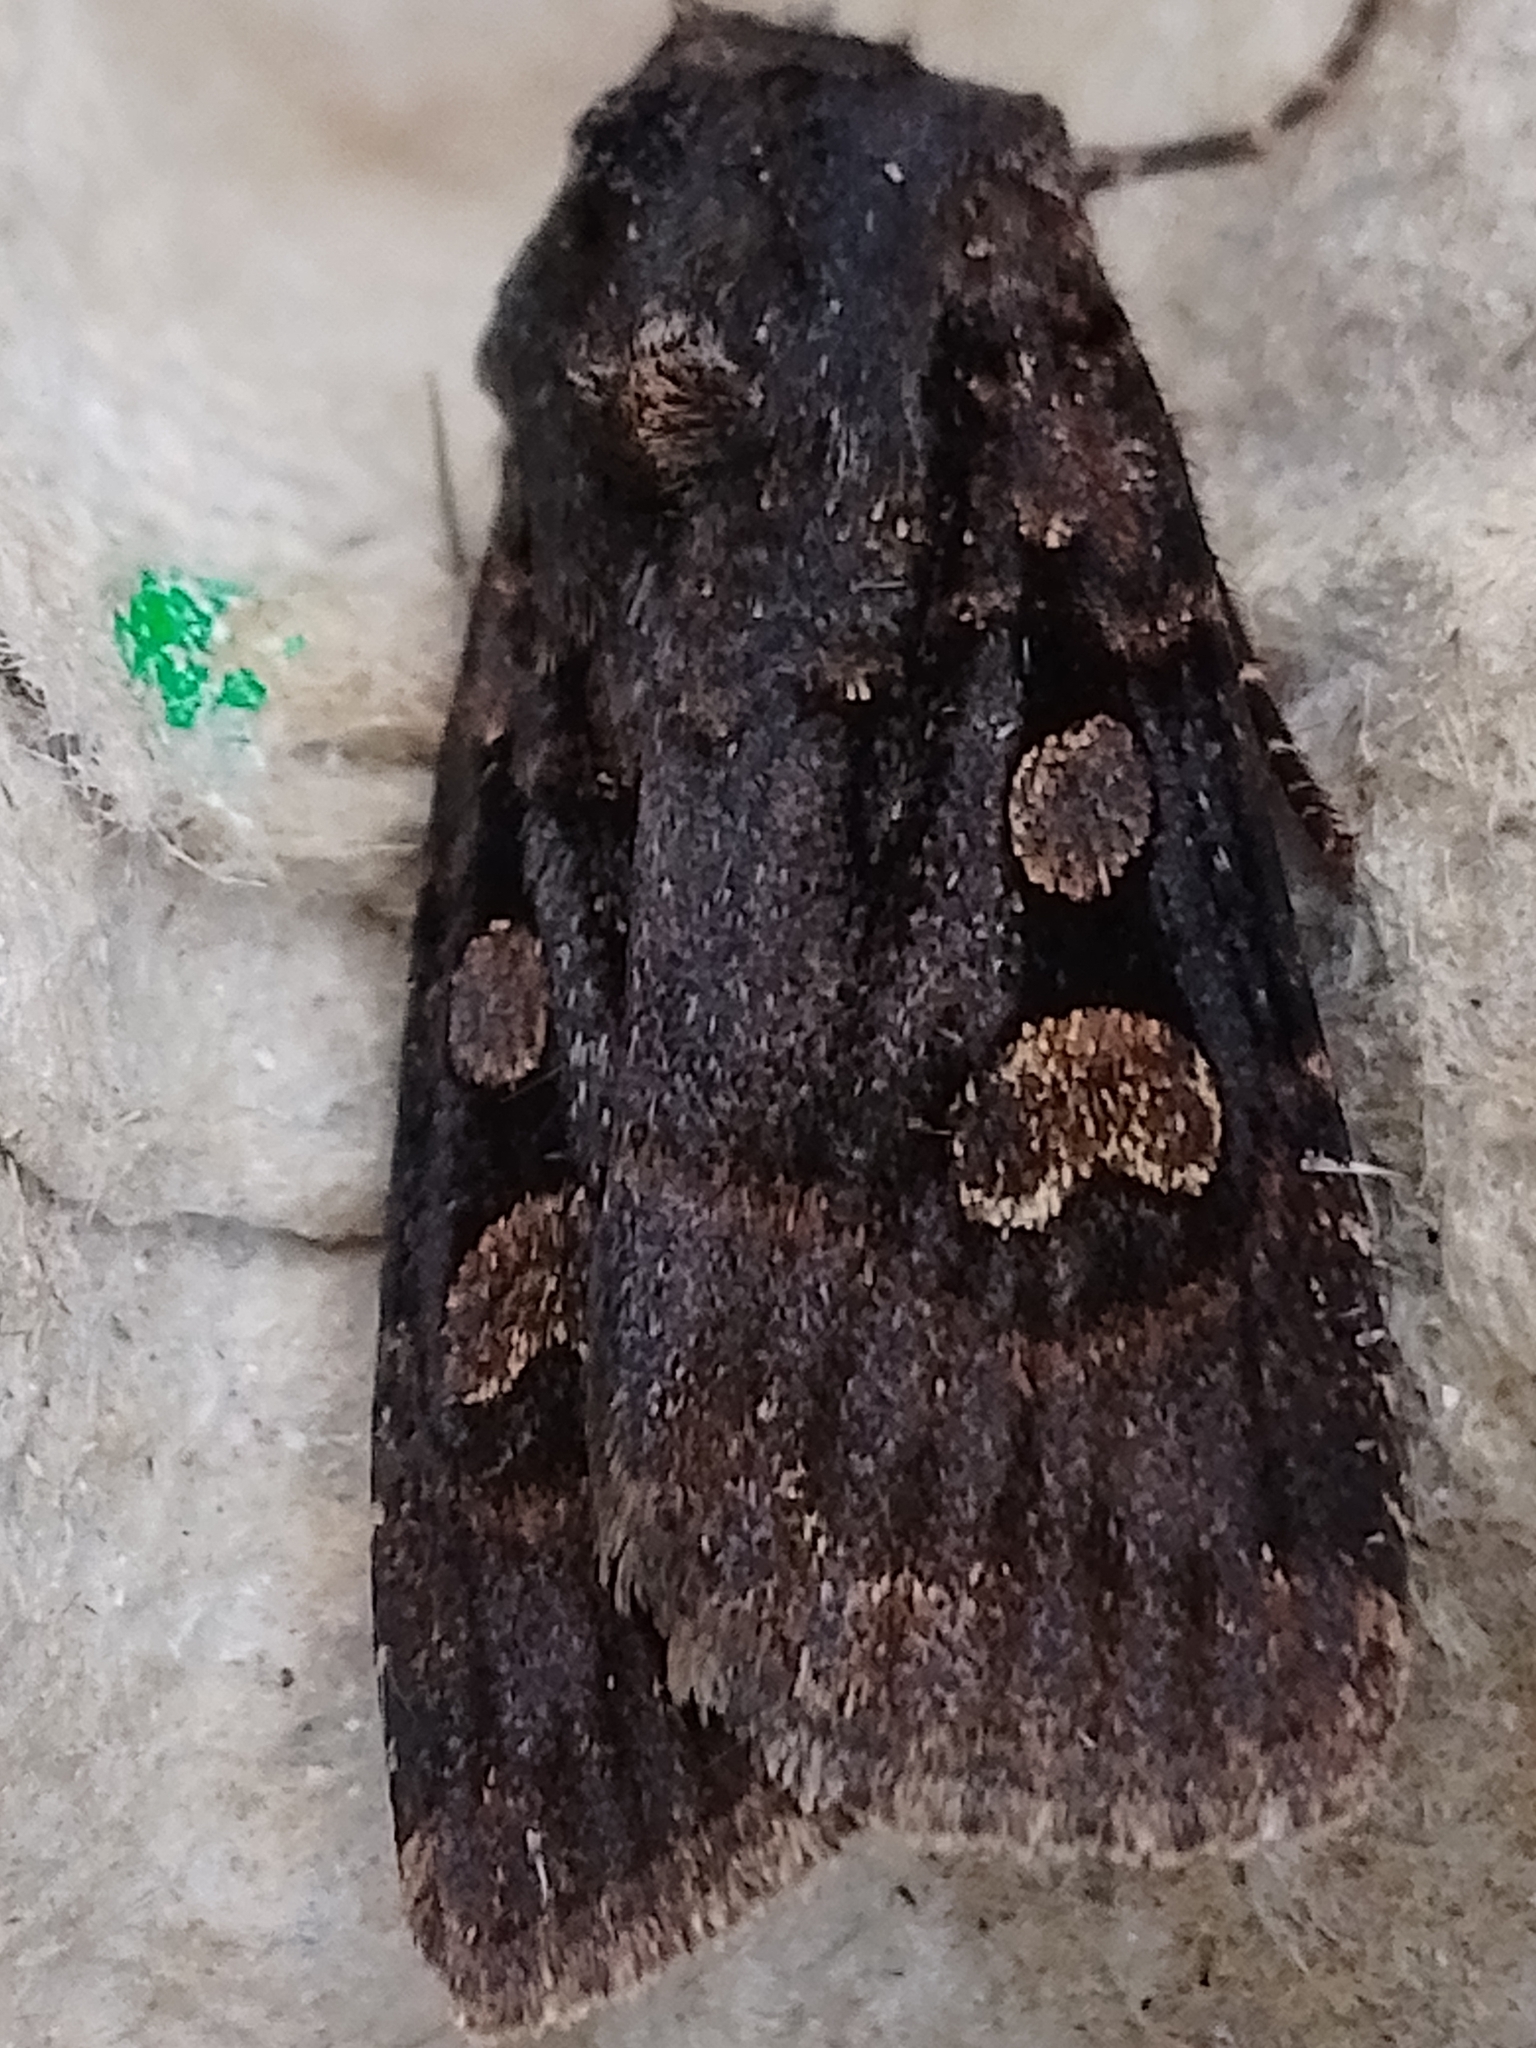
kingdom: Animalia
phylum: Arthropoda
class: Insecta
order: Lepidoptera
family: Noctuidae
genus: Euxoa
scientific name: Euxoa nigricans
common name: Garden dart
